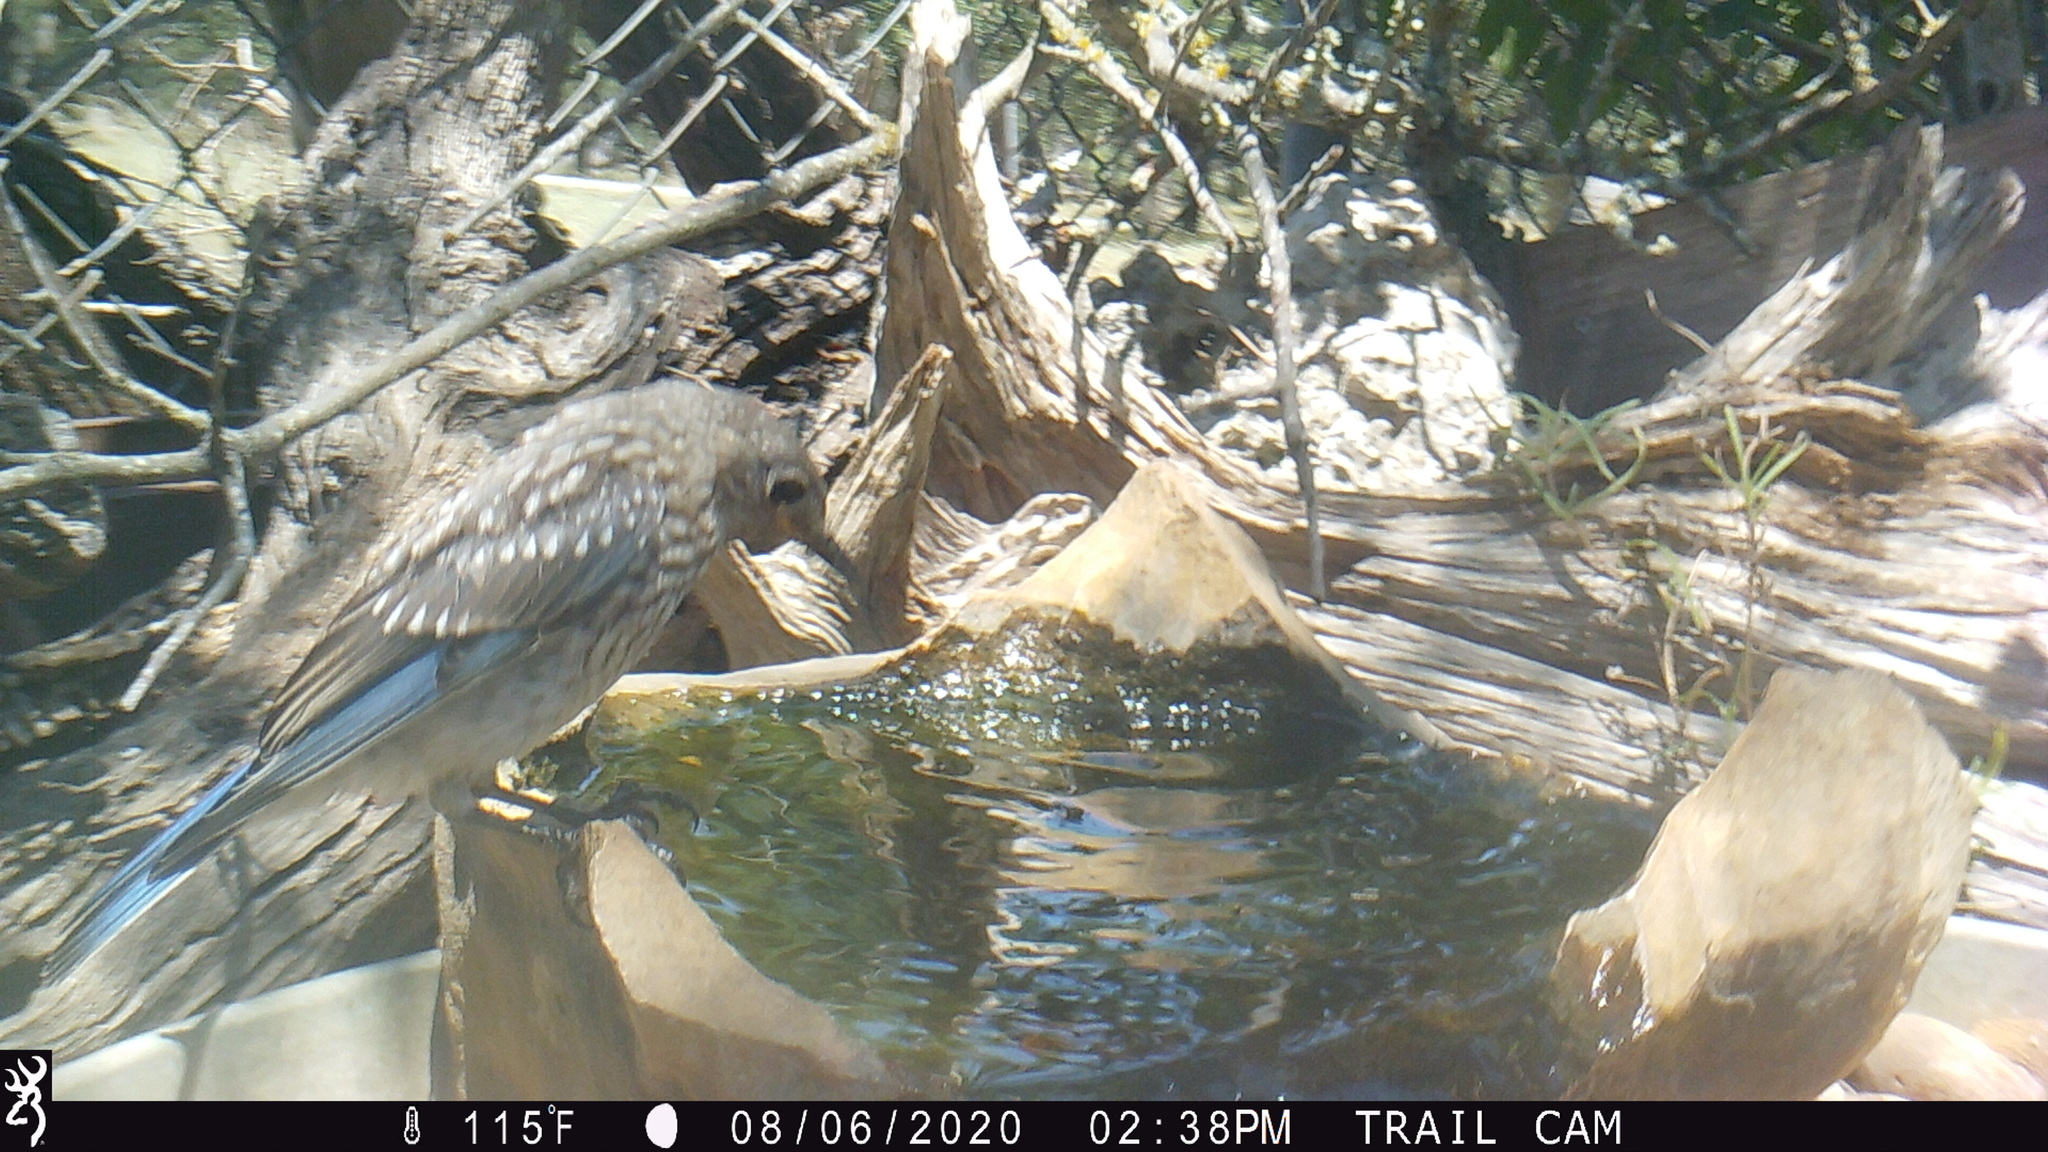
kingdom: Animalia
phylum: Chordata
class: Aves
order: Passeriformes
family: Turdidae
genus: Sialia
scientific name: Sialia sialis
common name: Eastern bluebird
